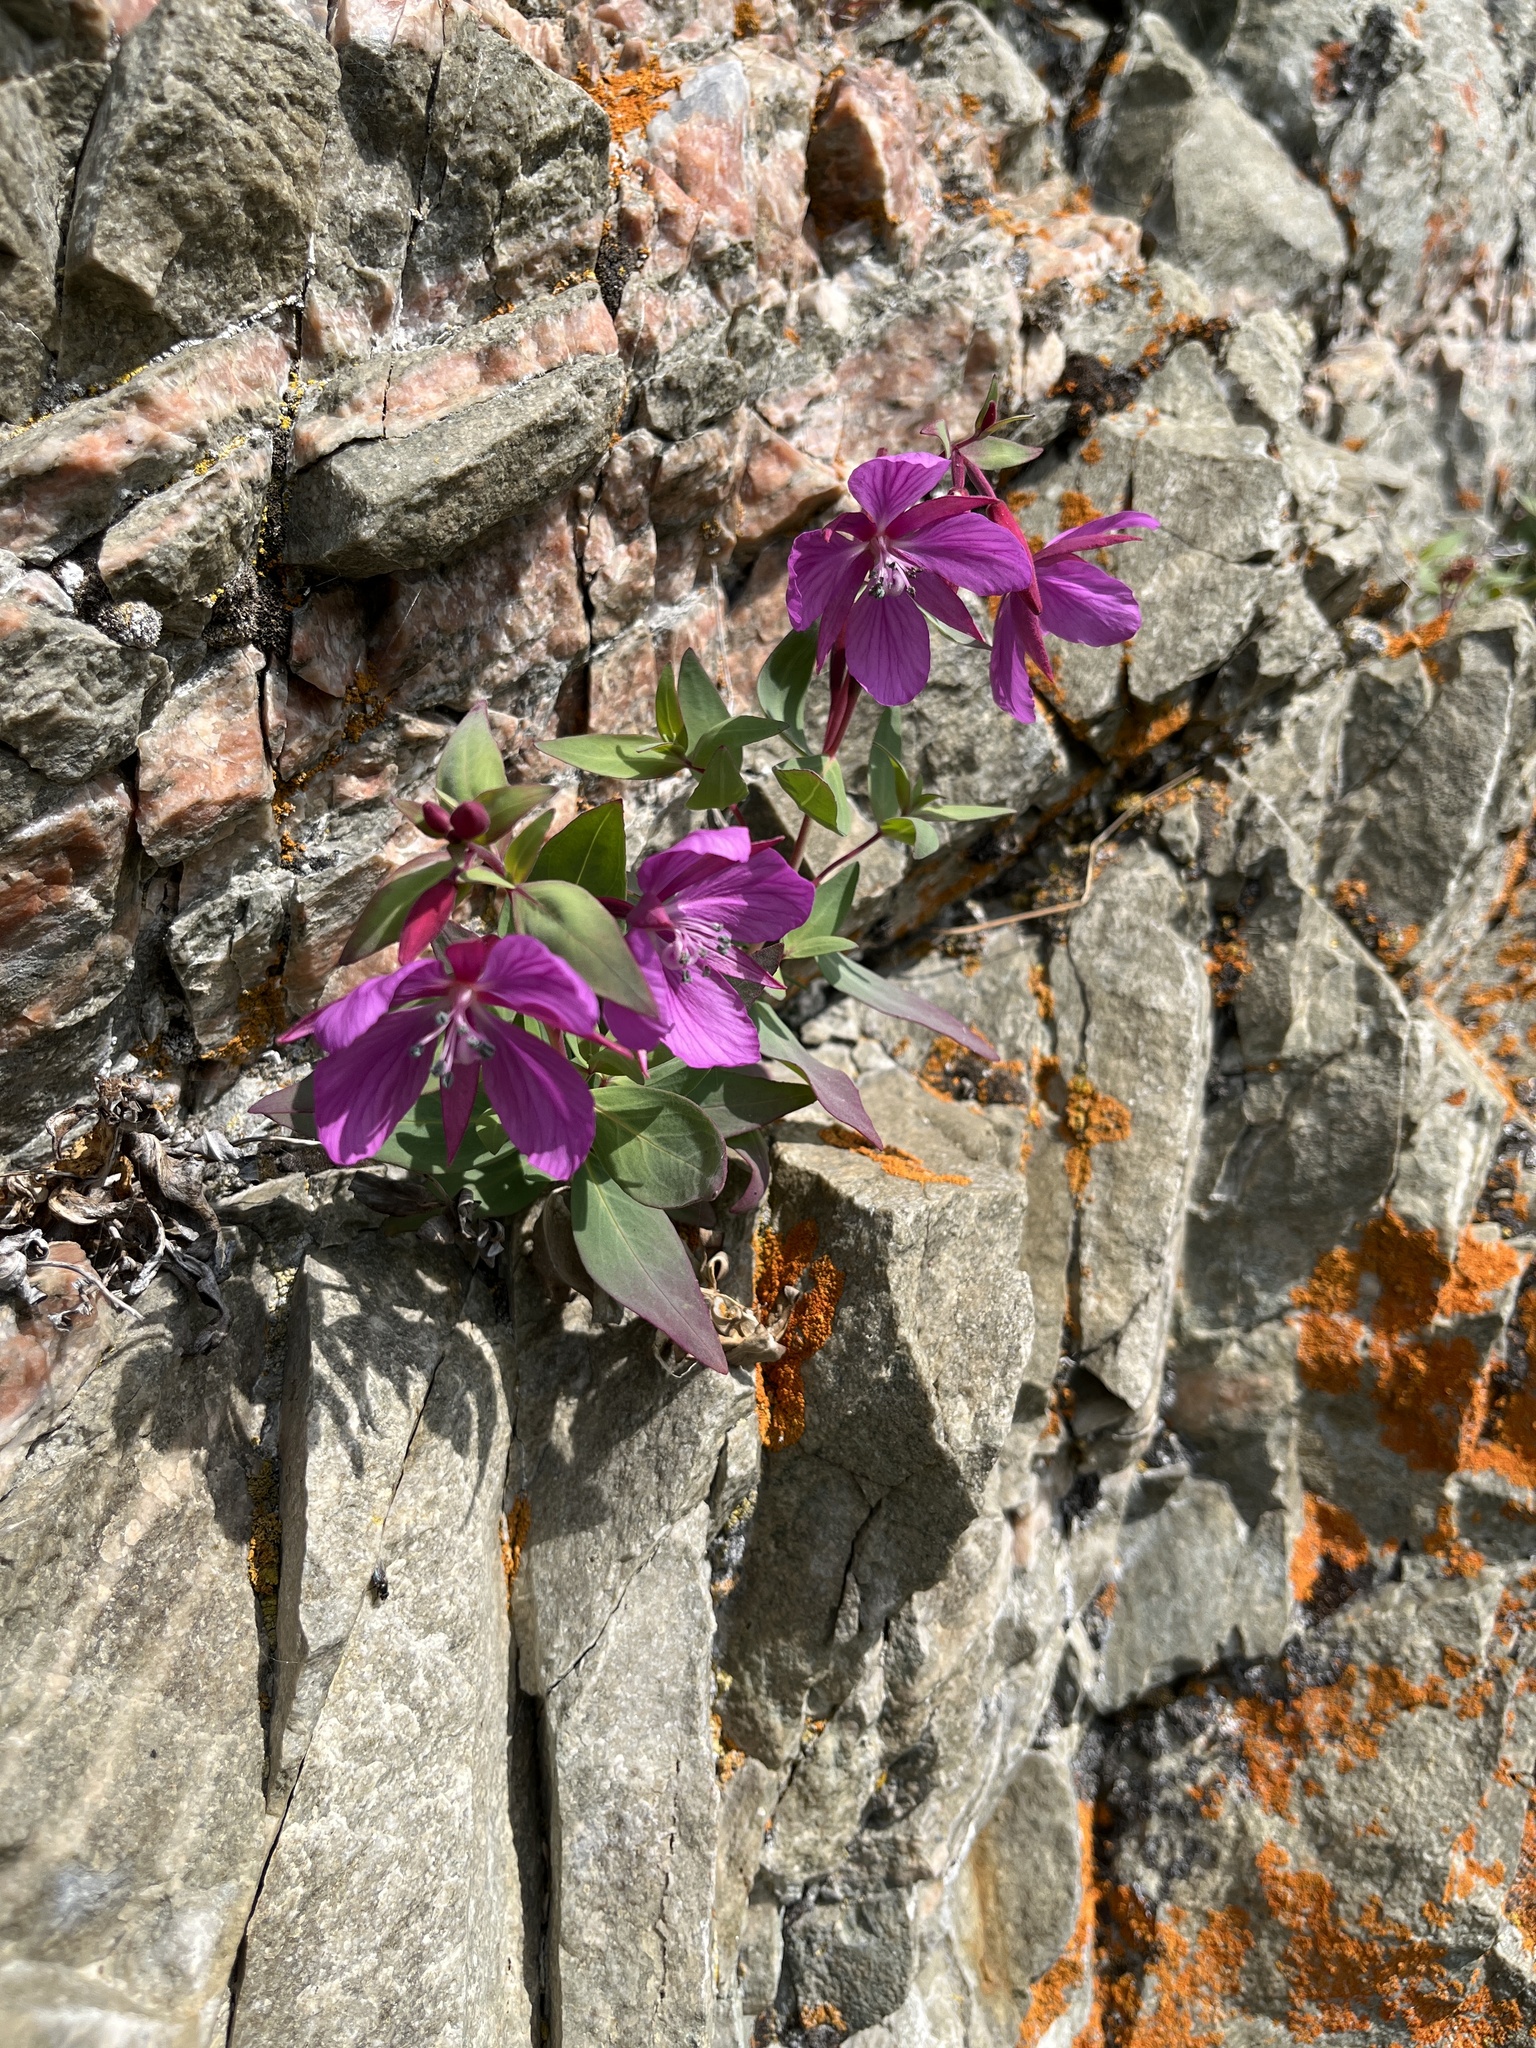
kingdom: Plantae
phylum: Tracheophyta
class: Magnoliopsida
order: Myrtales
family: Onagraceae
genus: Chamaenerion
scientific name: Chamaenerion latifolium
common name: Dwarf fireweed
